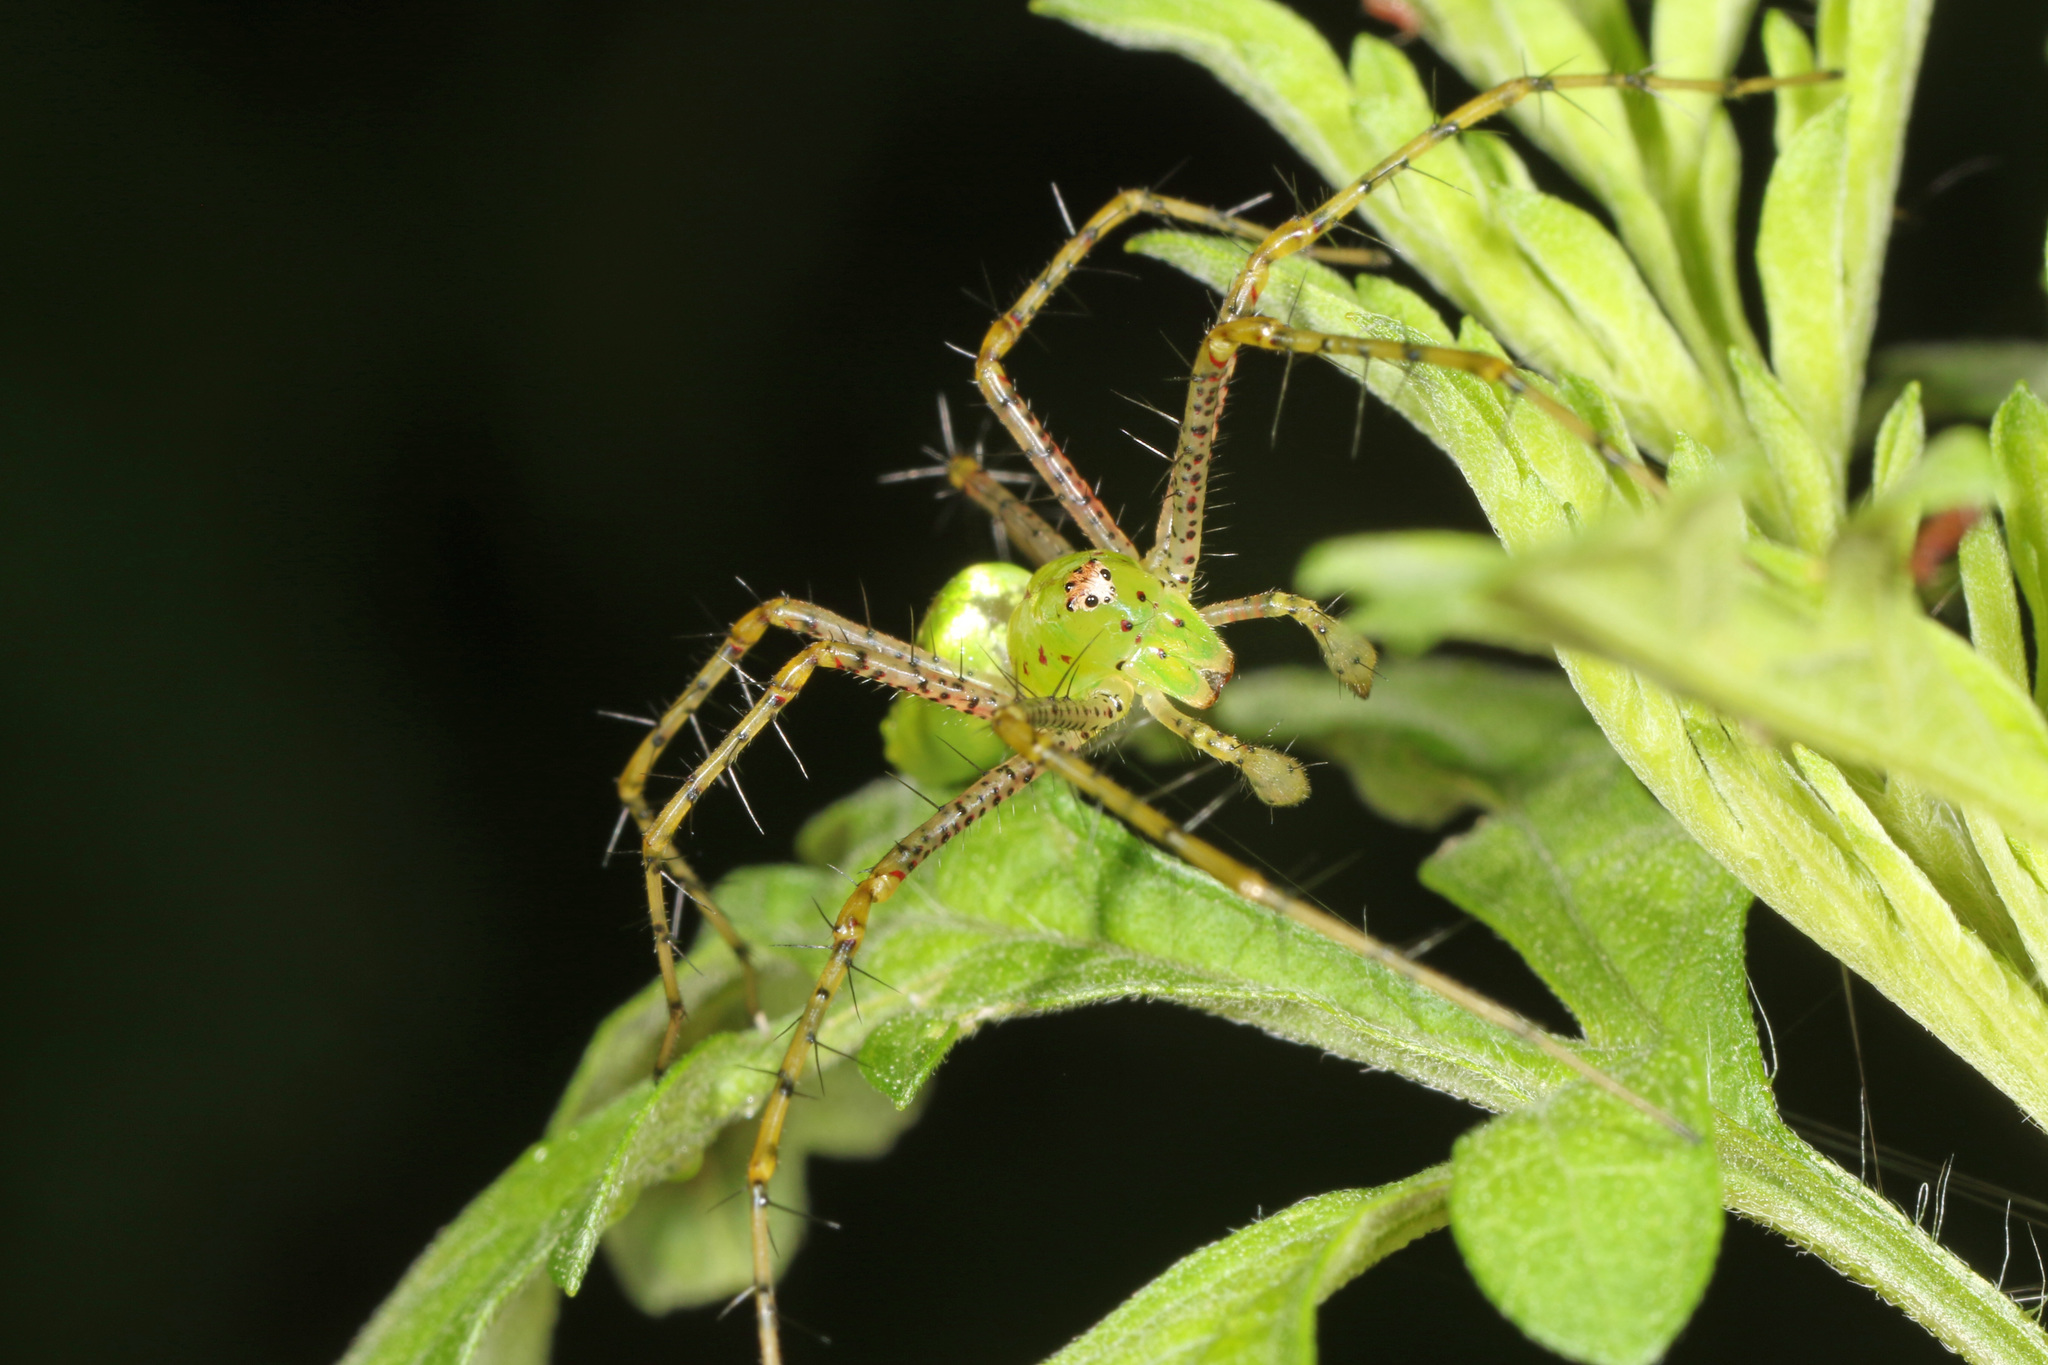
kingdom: Animalia
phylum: Arthropoda
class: Arachnida
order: Araneae
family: Oxyopidae
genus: Peucetia
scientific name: Peucetia viridans
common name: Lynx spiders
